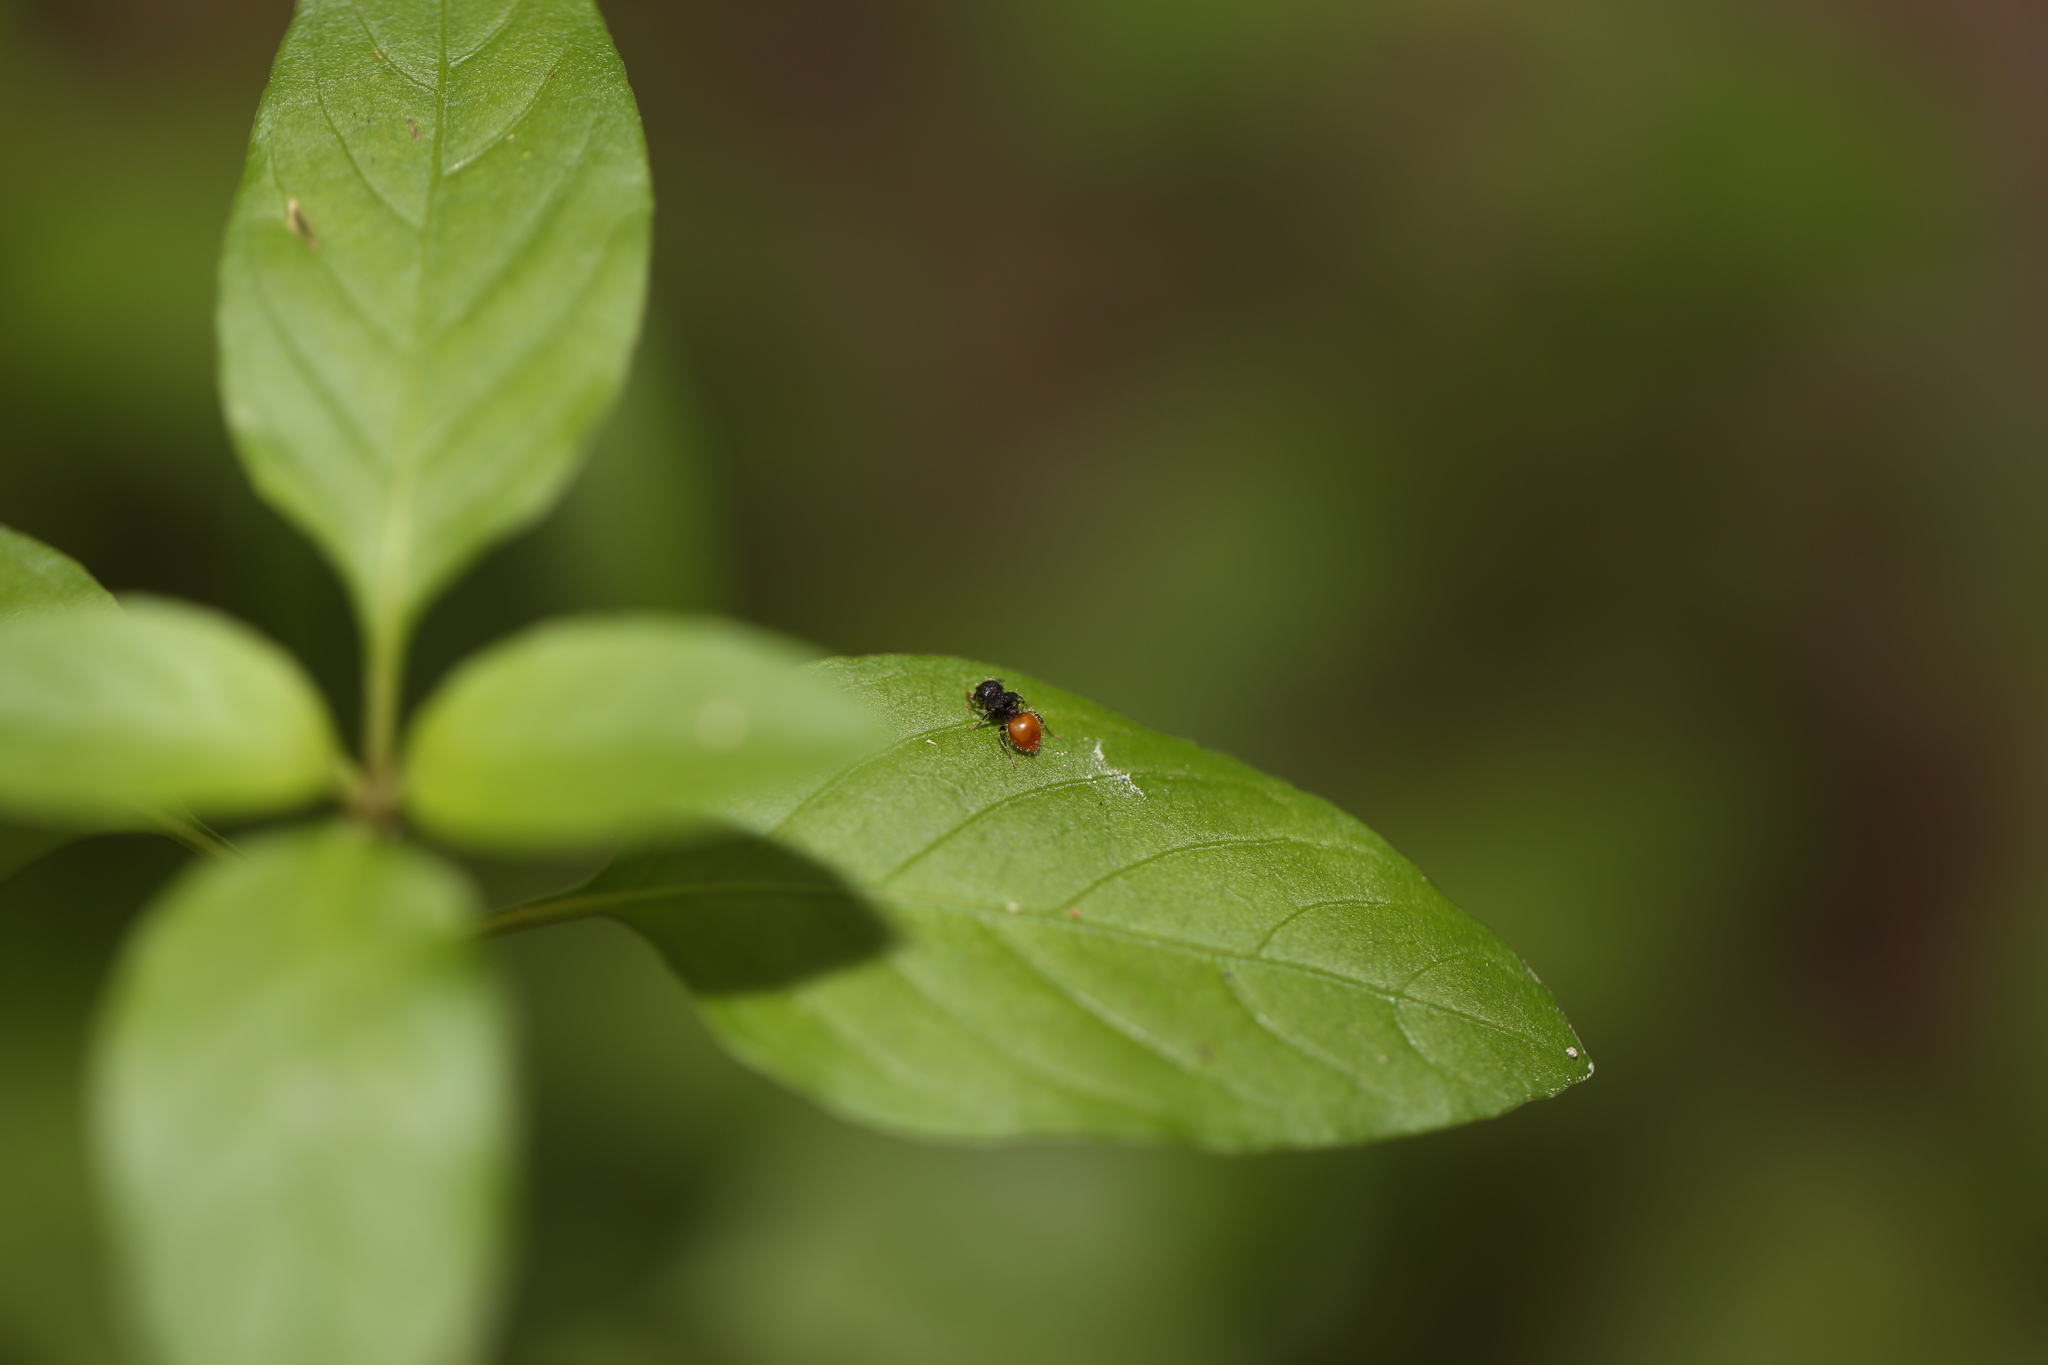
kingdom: Animalia
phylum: Arthropoda
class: Insecta
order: Hymenoptera
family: Formicidae
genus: Meranoplus
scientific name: Meranoplus hirsutus
